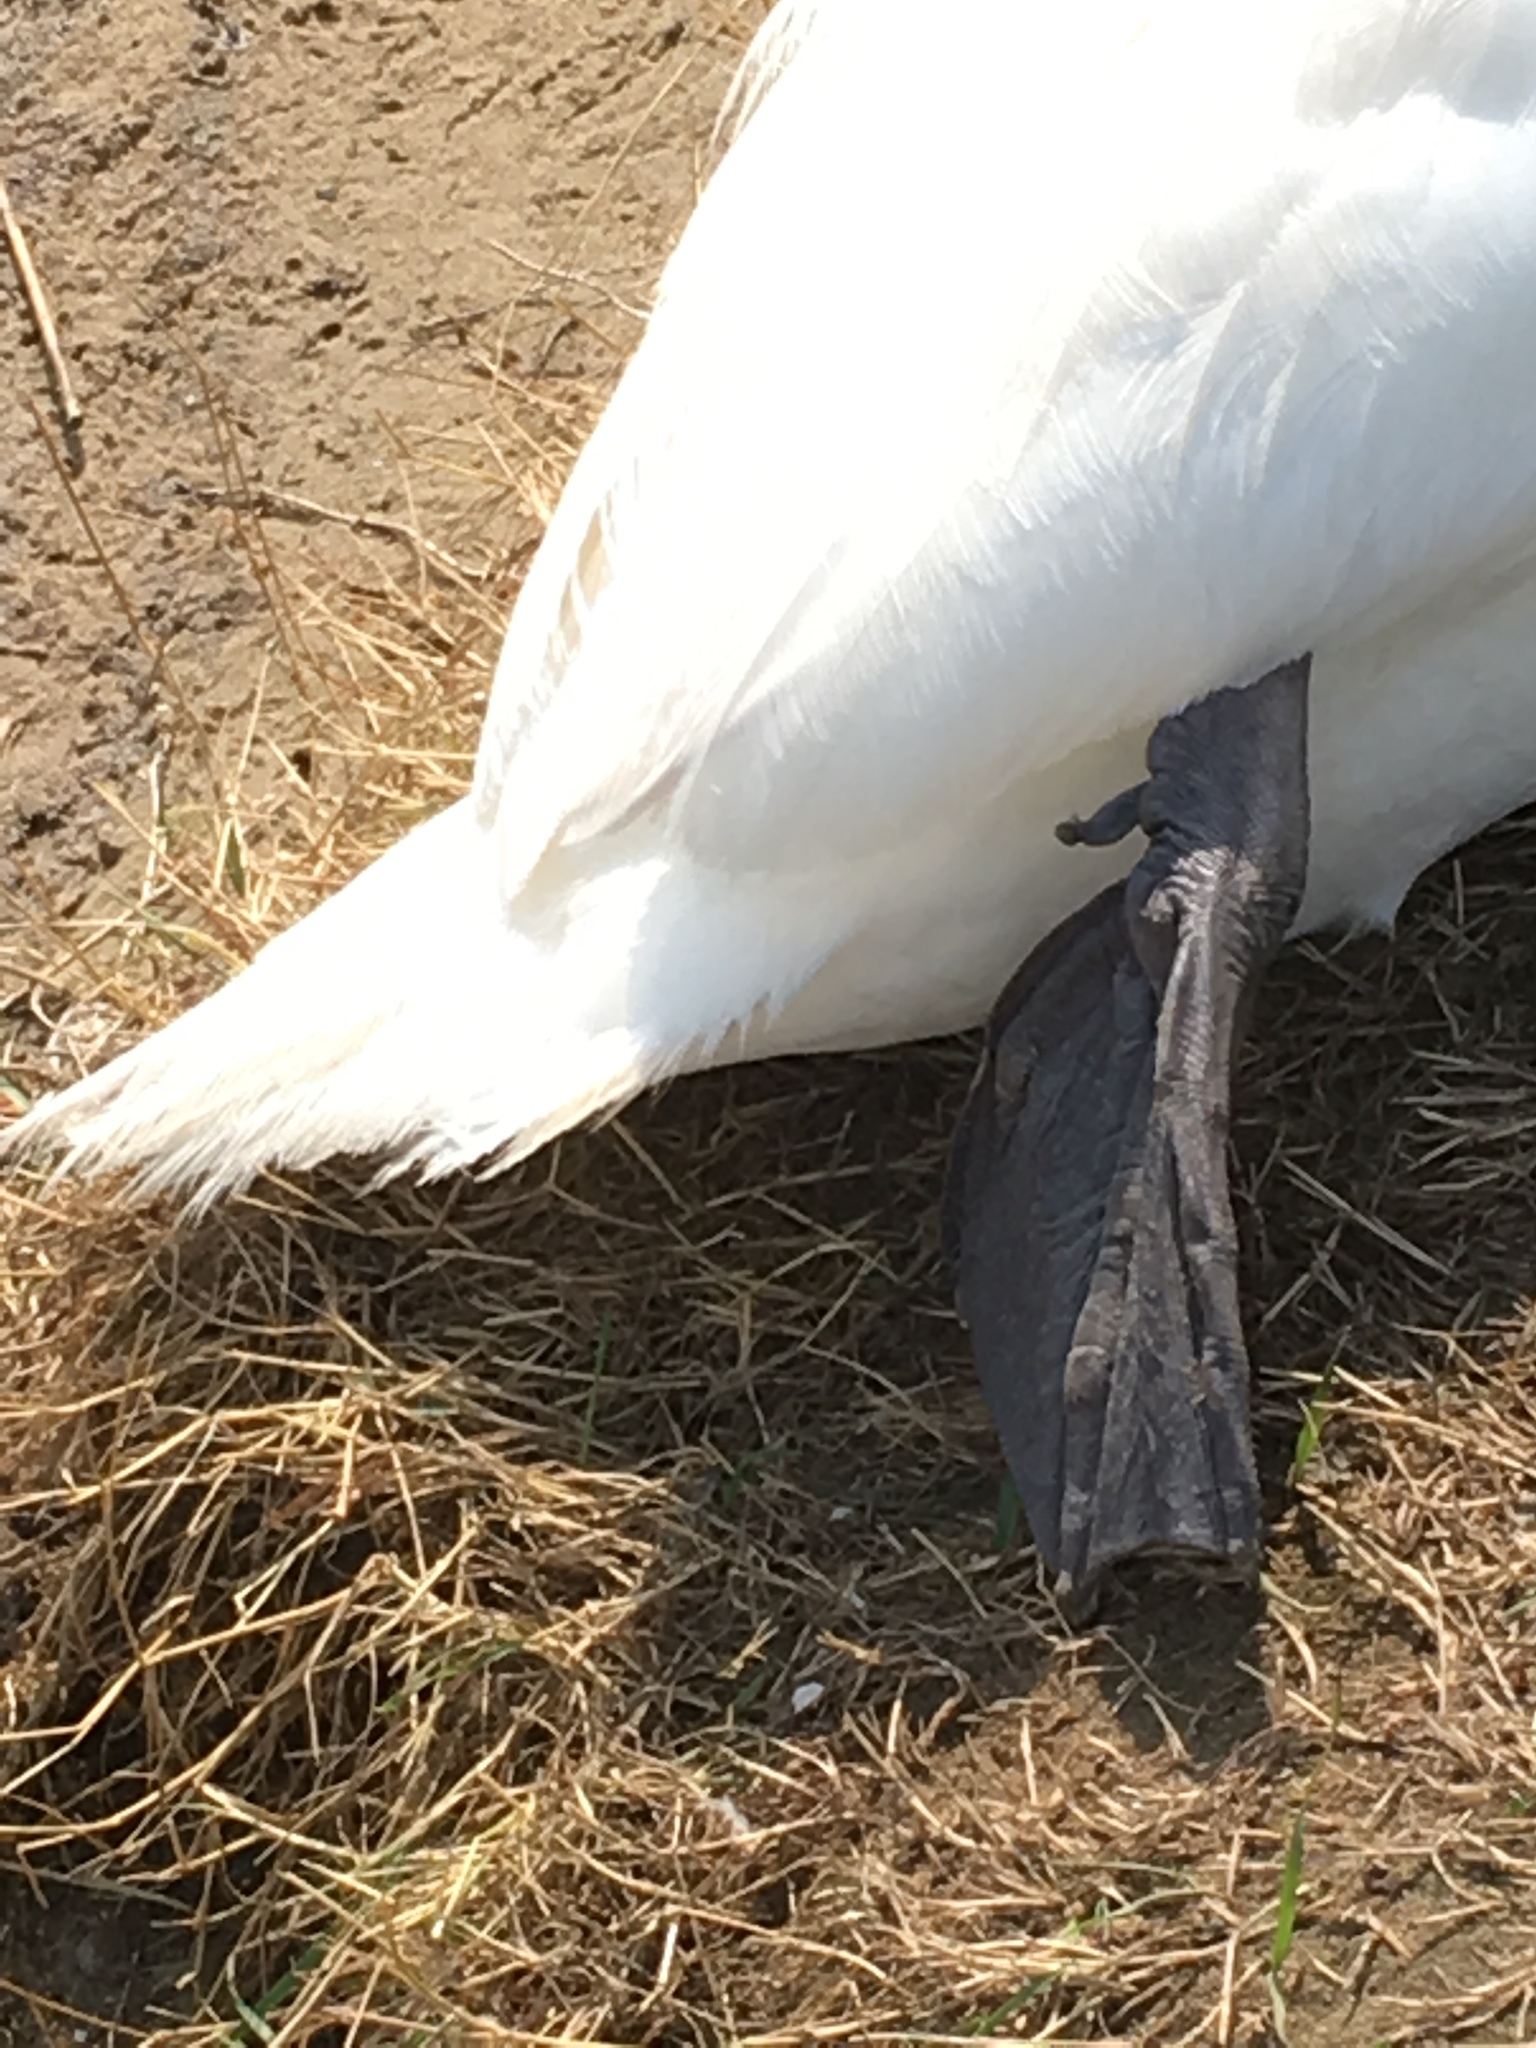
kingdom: Animalia
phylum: Chordata
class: Aves
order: Anseriformes
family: Anatidae
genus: Cygnus
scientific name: Cygnus olor
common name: Mute swan
